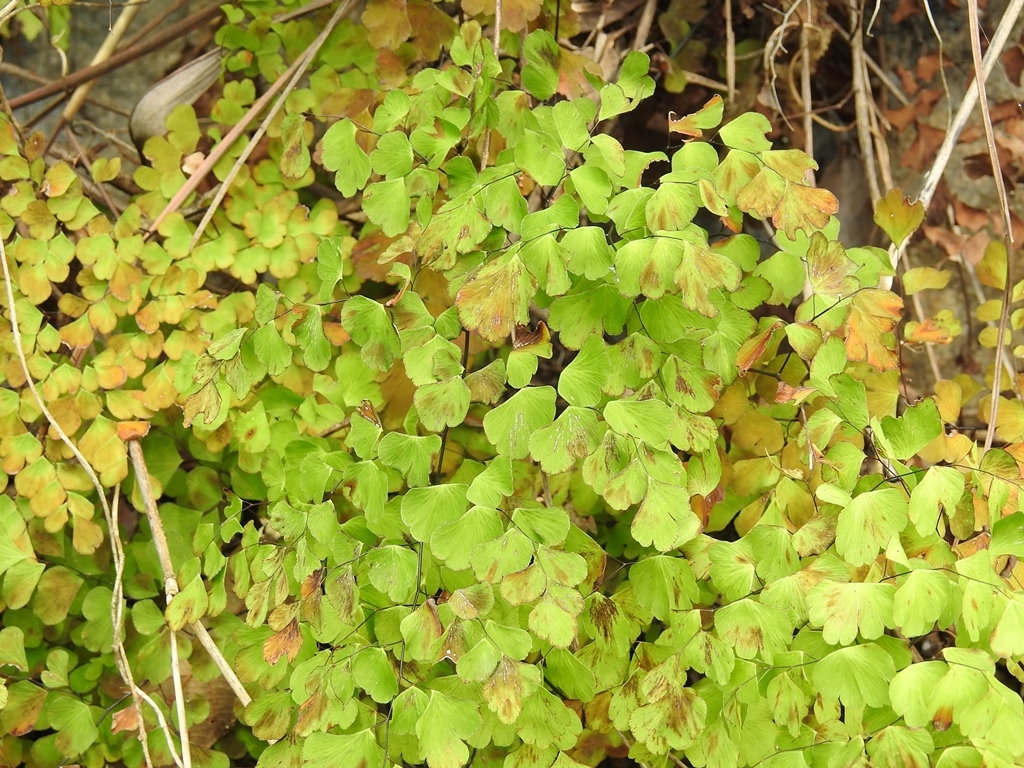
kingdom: Plantae
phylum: Tracheophyta
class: Polypodiopsida
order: Polypodiales
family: Pteridaceae
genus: Adiantum
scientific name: Adiantum poiretii
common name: Mexican maidenhair
